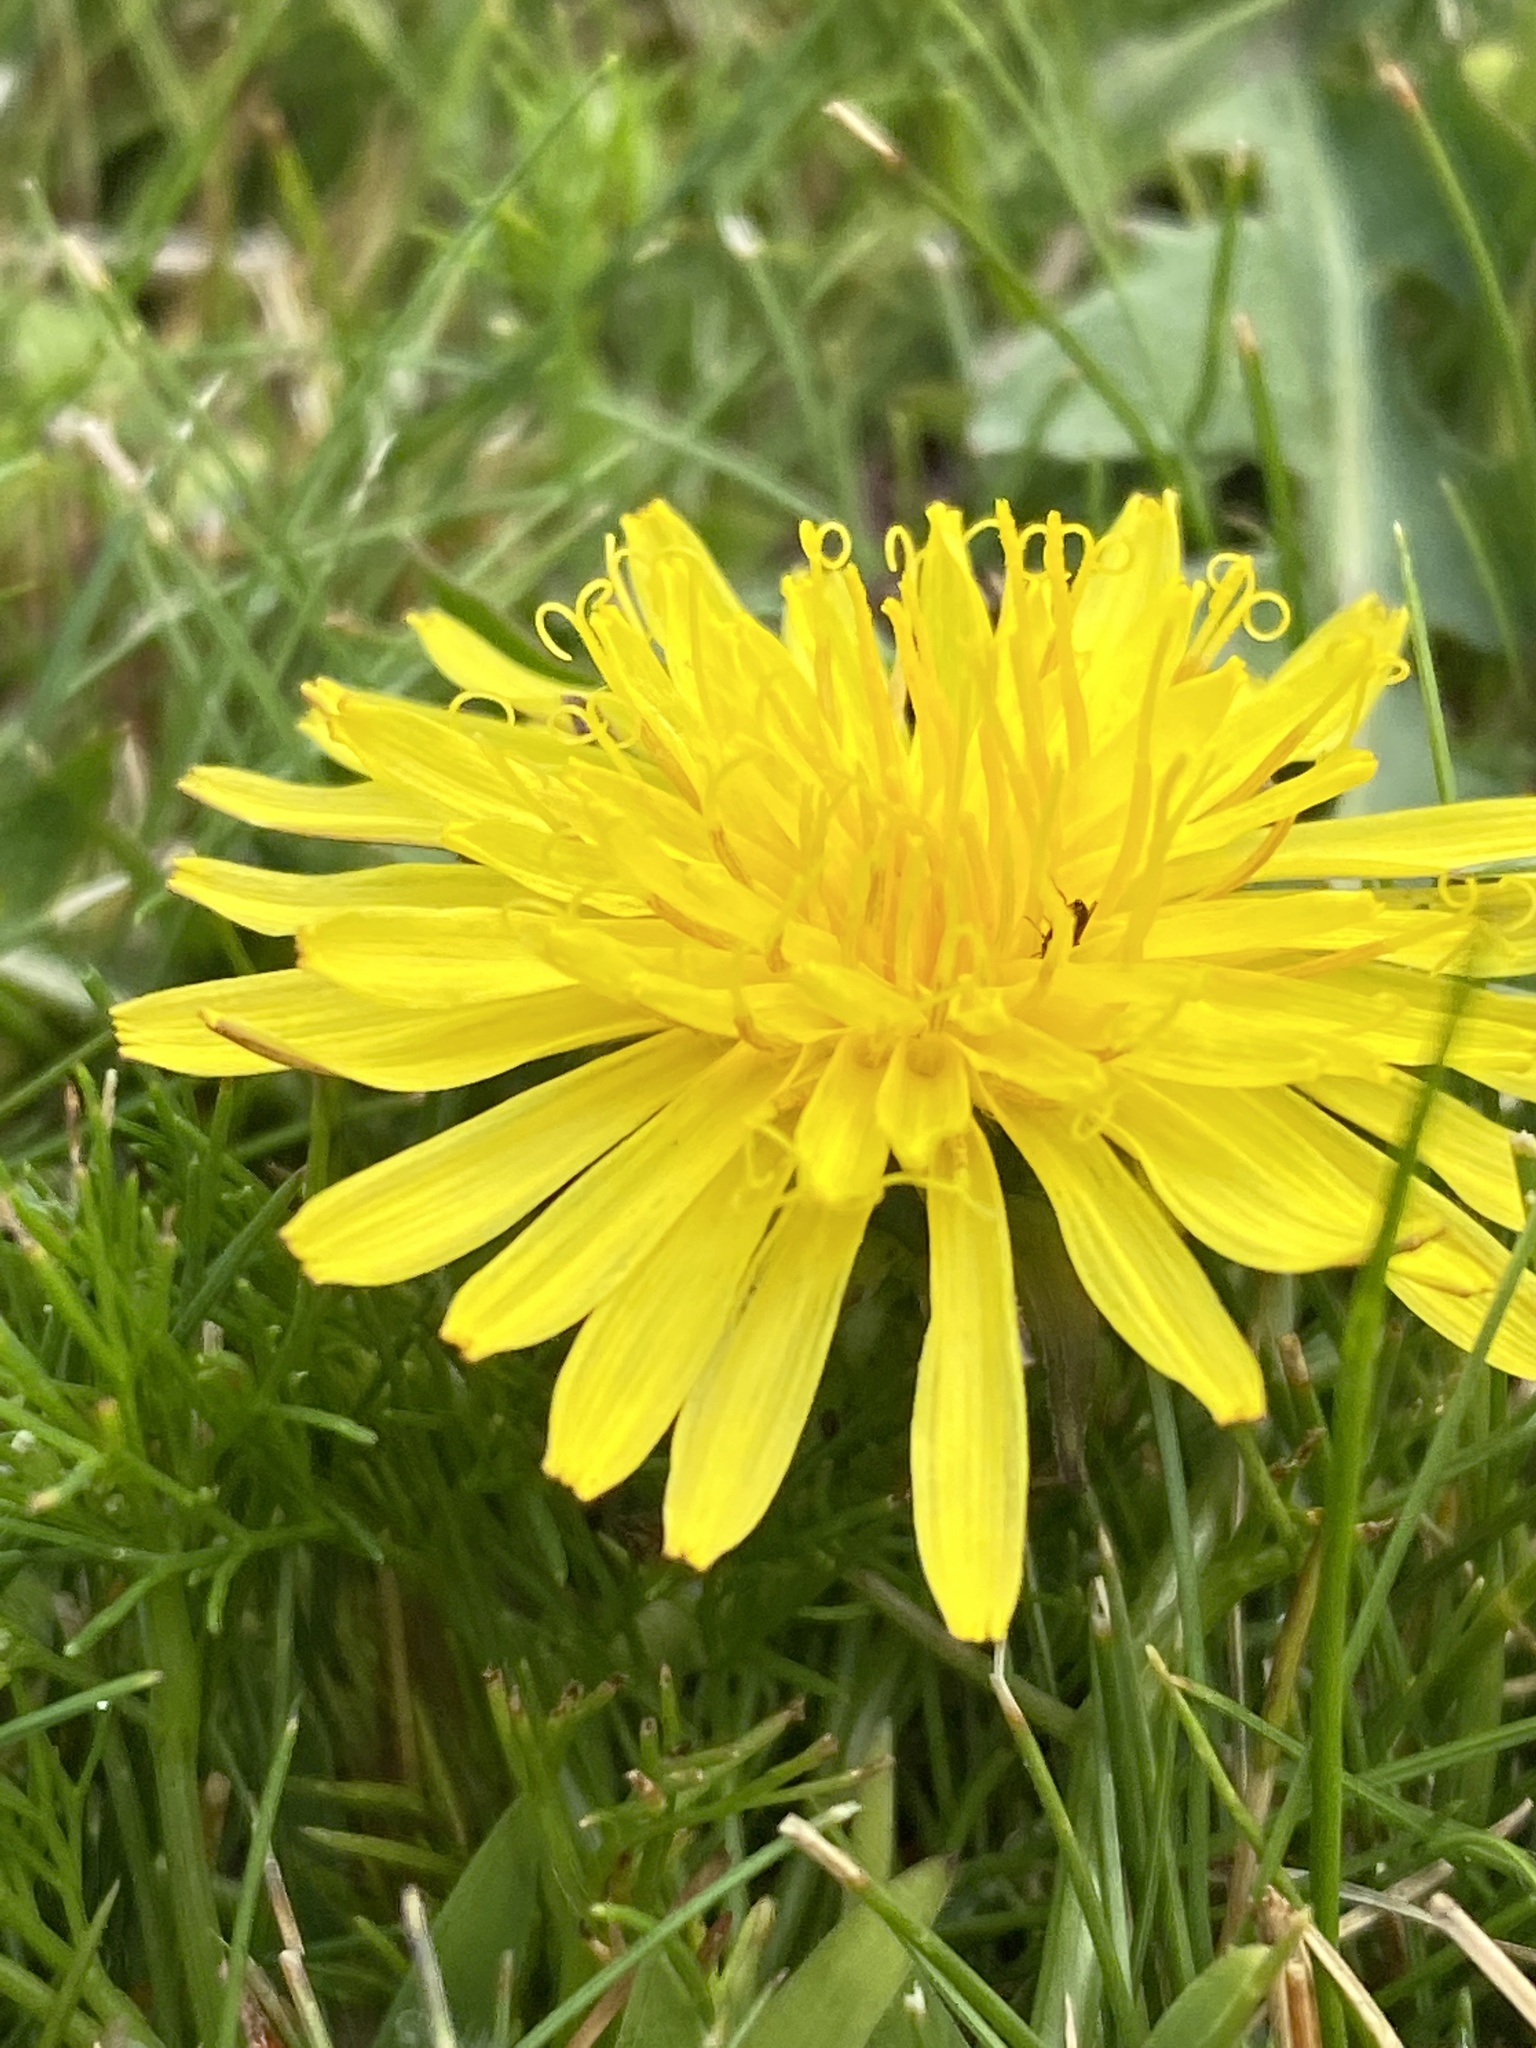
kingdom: Plantae
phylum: Tracheophyta
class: Magnoliopsida
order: Asterales
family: Asteraceae
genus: Taraxacum
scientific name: Taraxacum officinale
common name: Common dandelion
